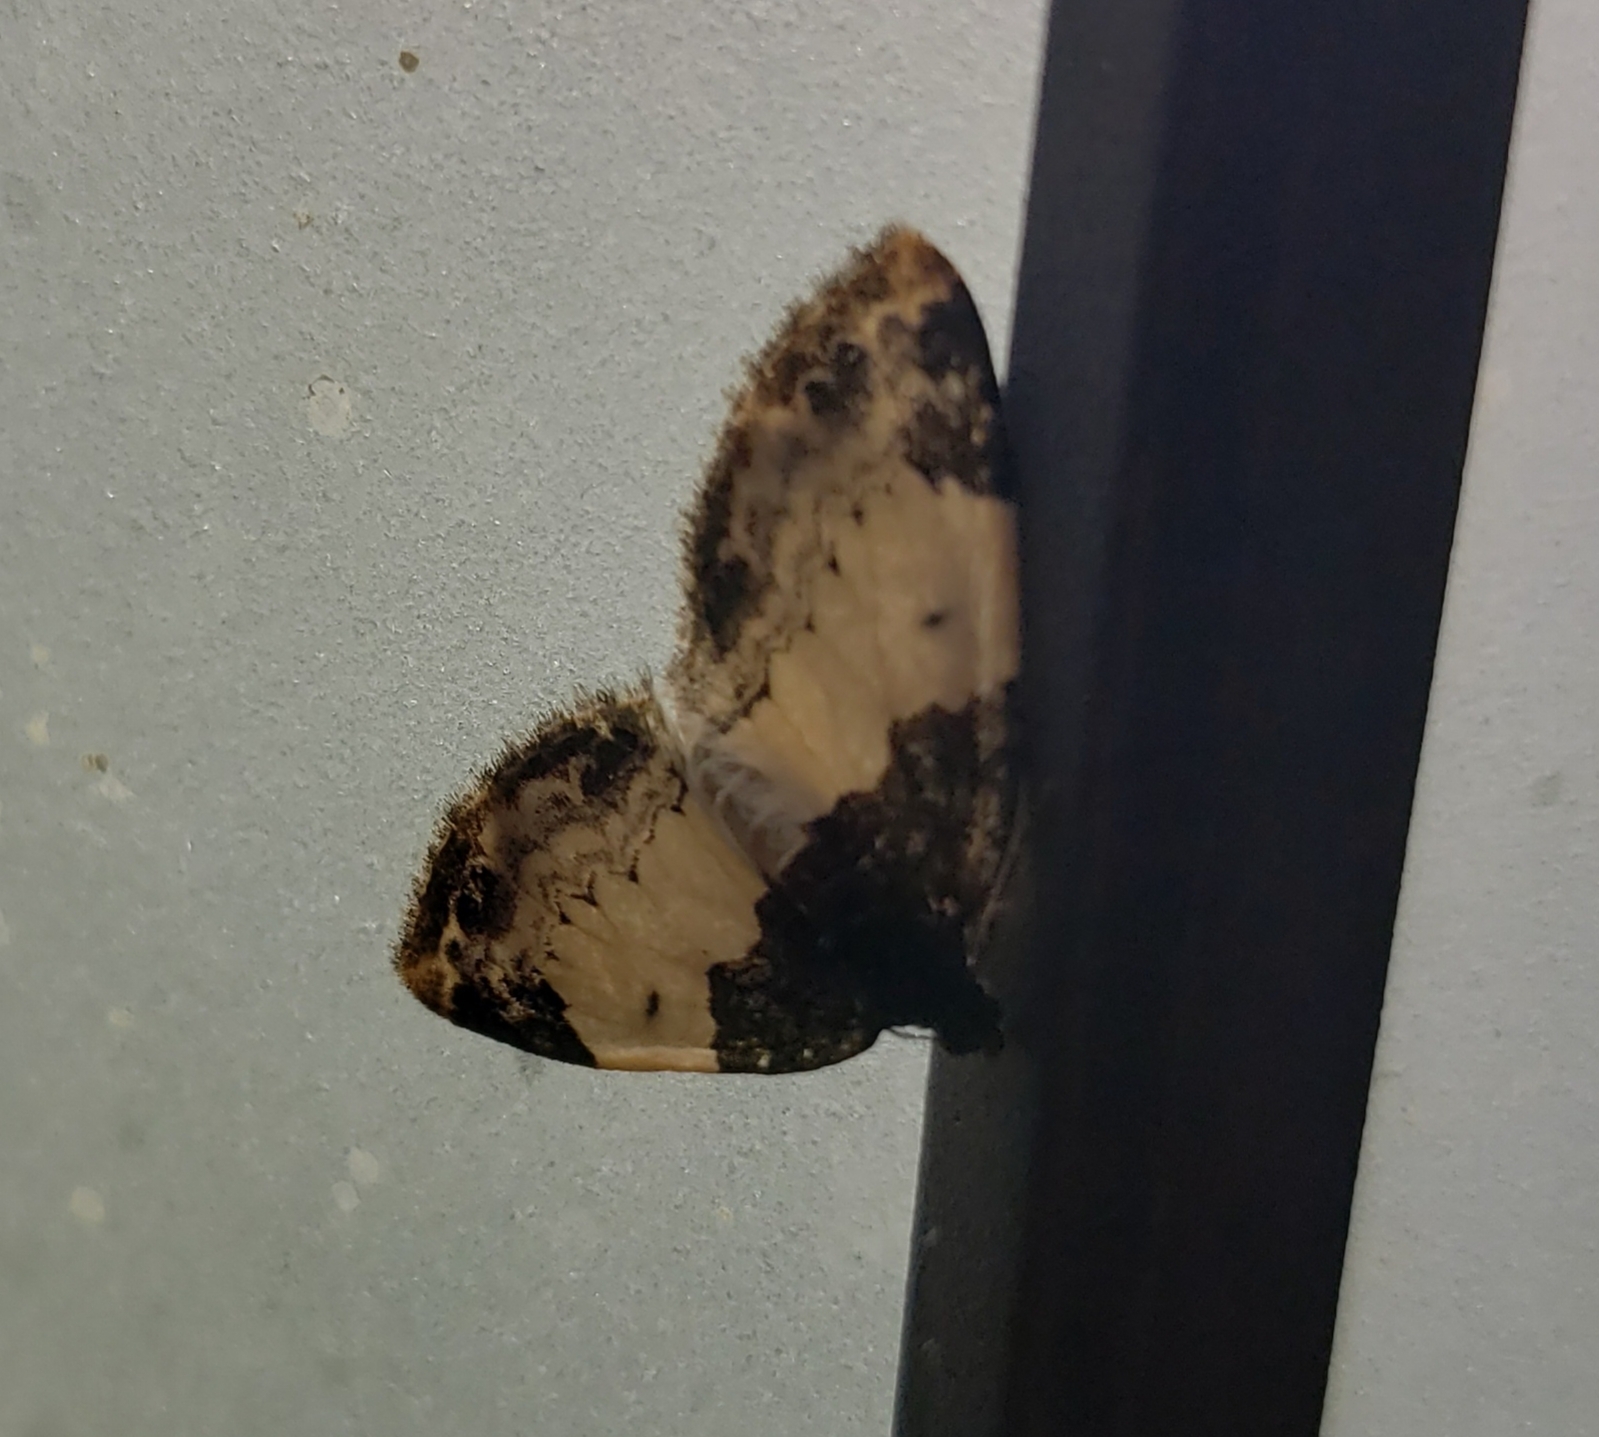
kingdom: Animalia
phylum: Arthropoda
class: Insecta
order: Lepidoptera
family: Geometridae
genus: Mesoleuca
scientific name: Mesoleuca ruficillata
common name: White-ribboned carpet moth
